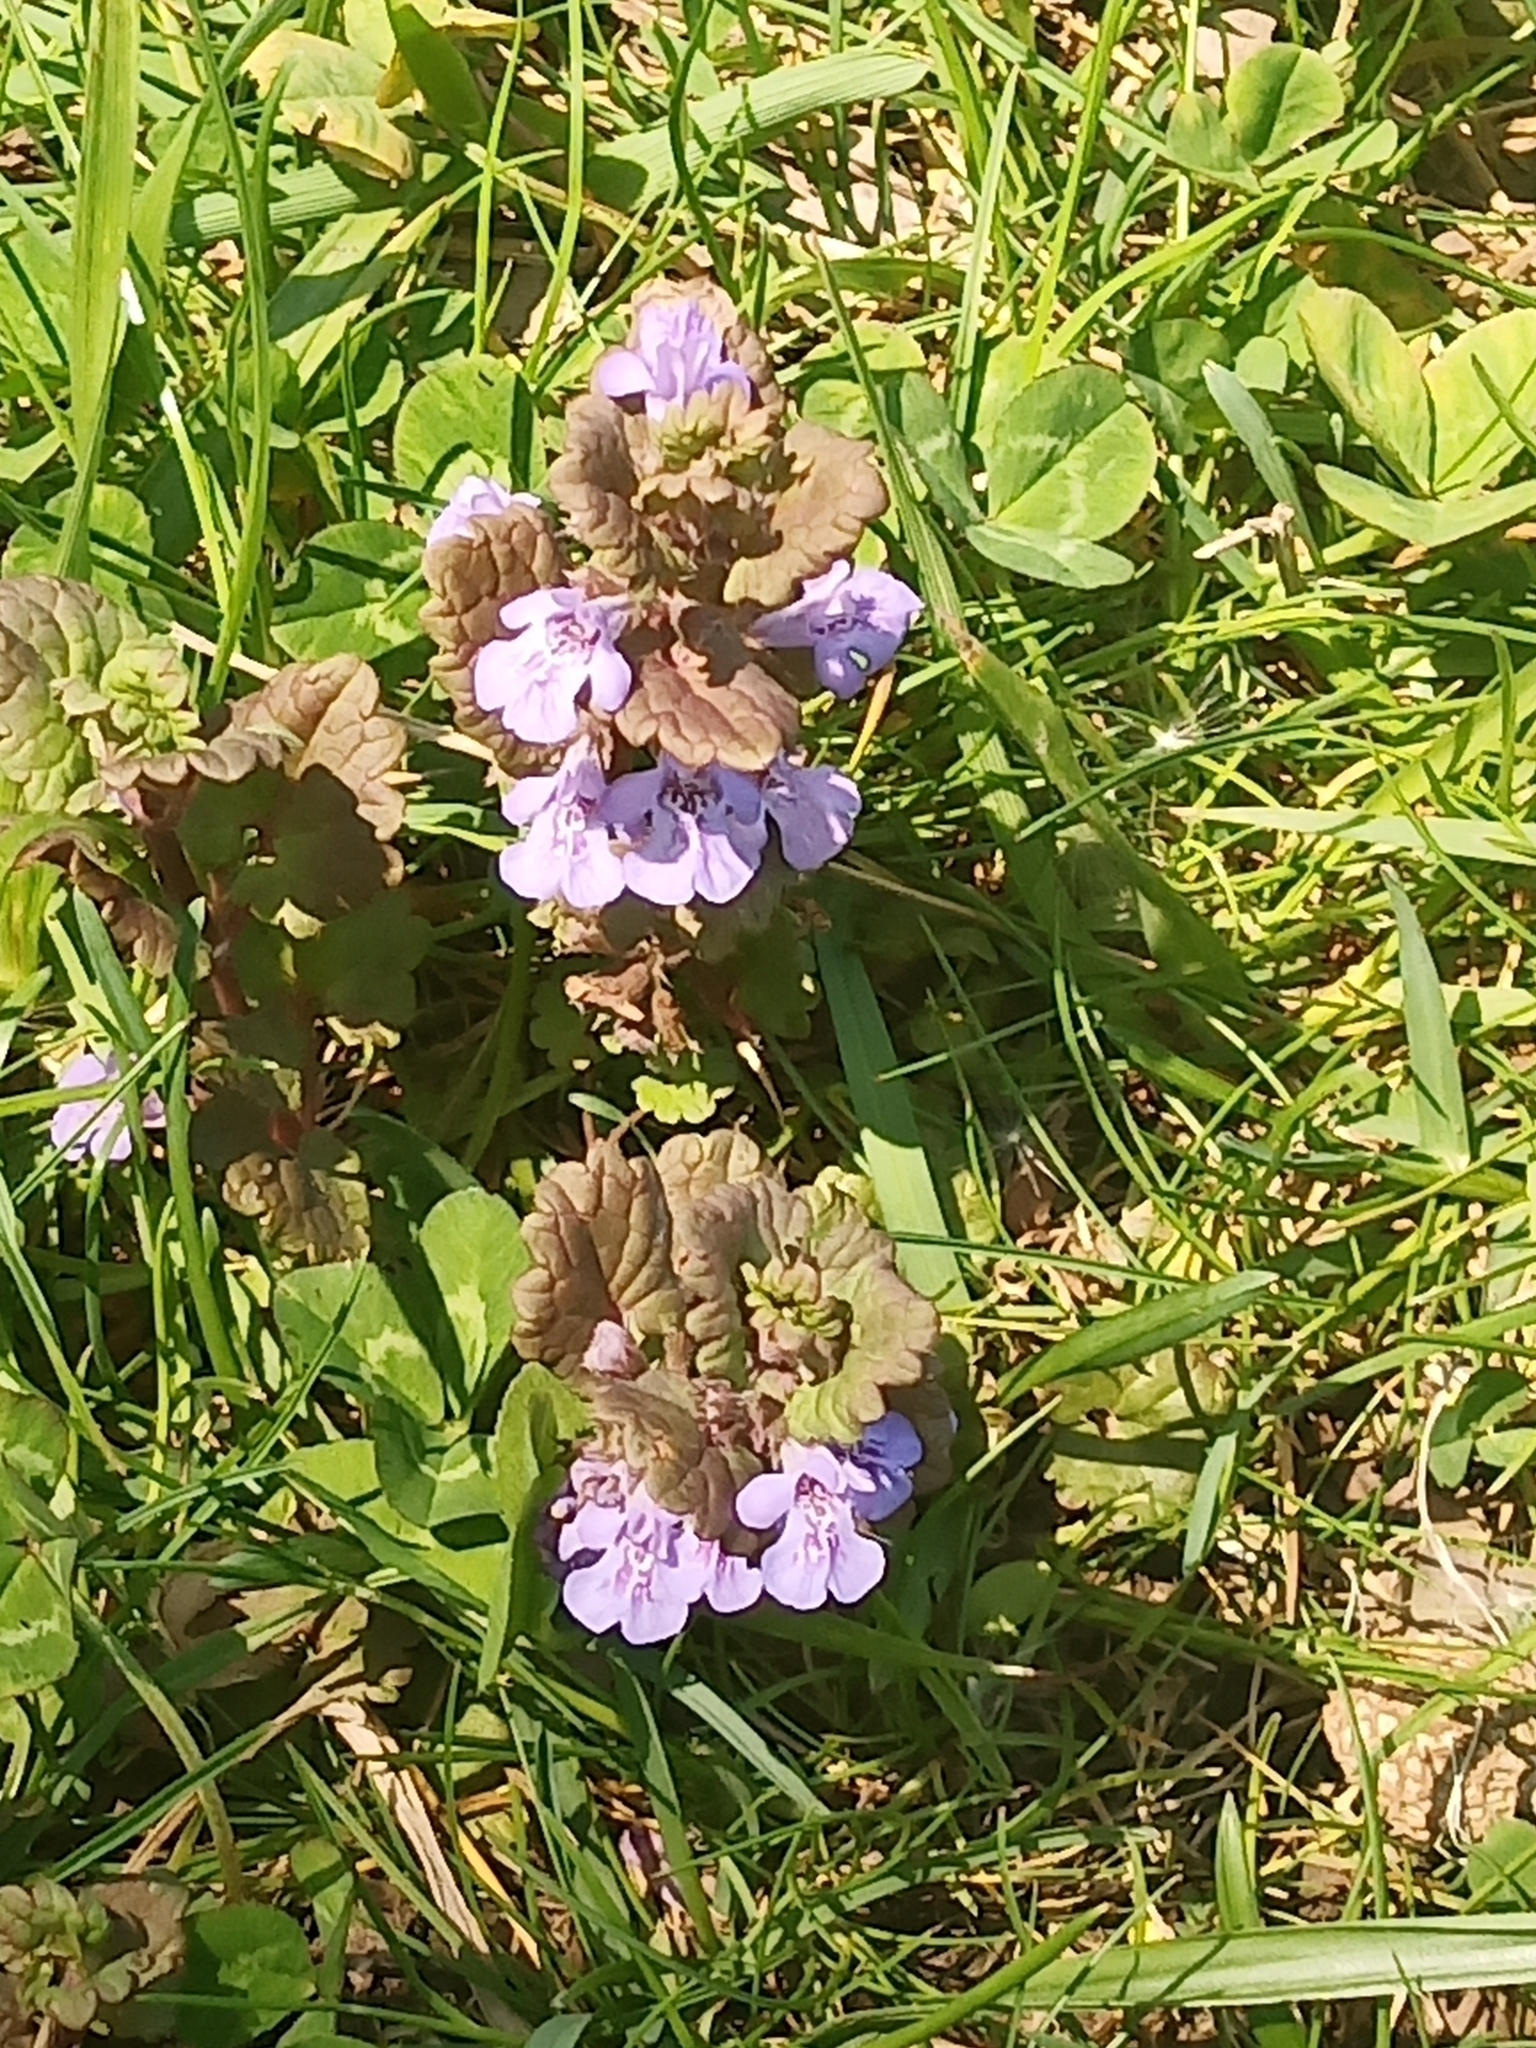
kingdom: Plantae
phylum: Tracheophyta
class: Magnoliopsida
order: Lamiales
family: Lamiaceae
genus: Glechoma
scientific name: Glechoma hederacea
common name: Ground ivy
